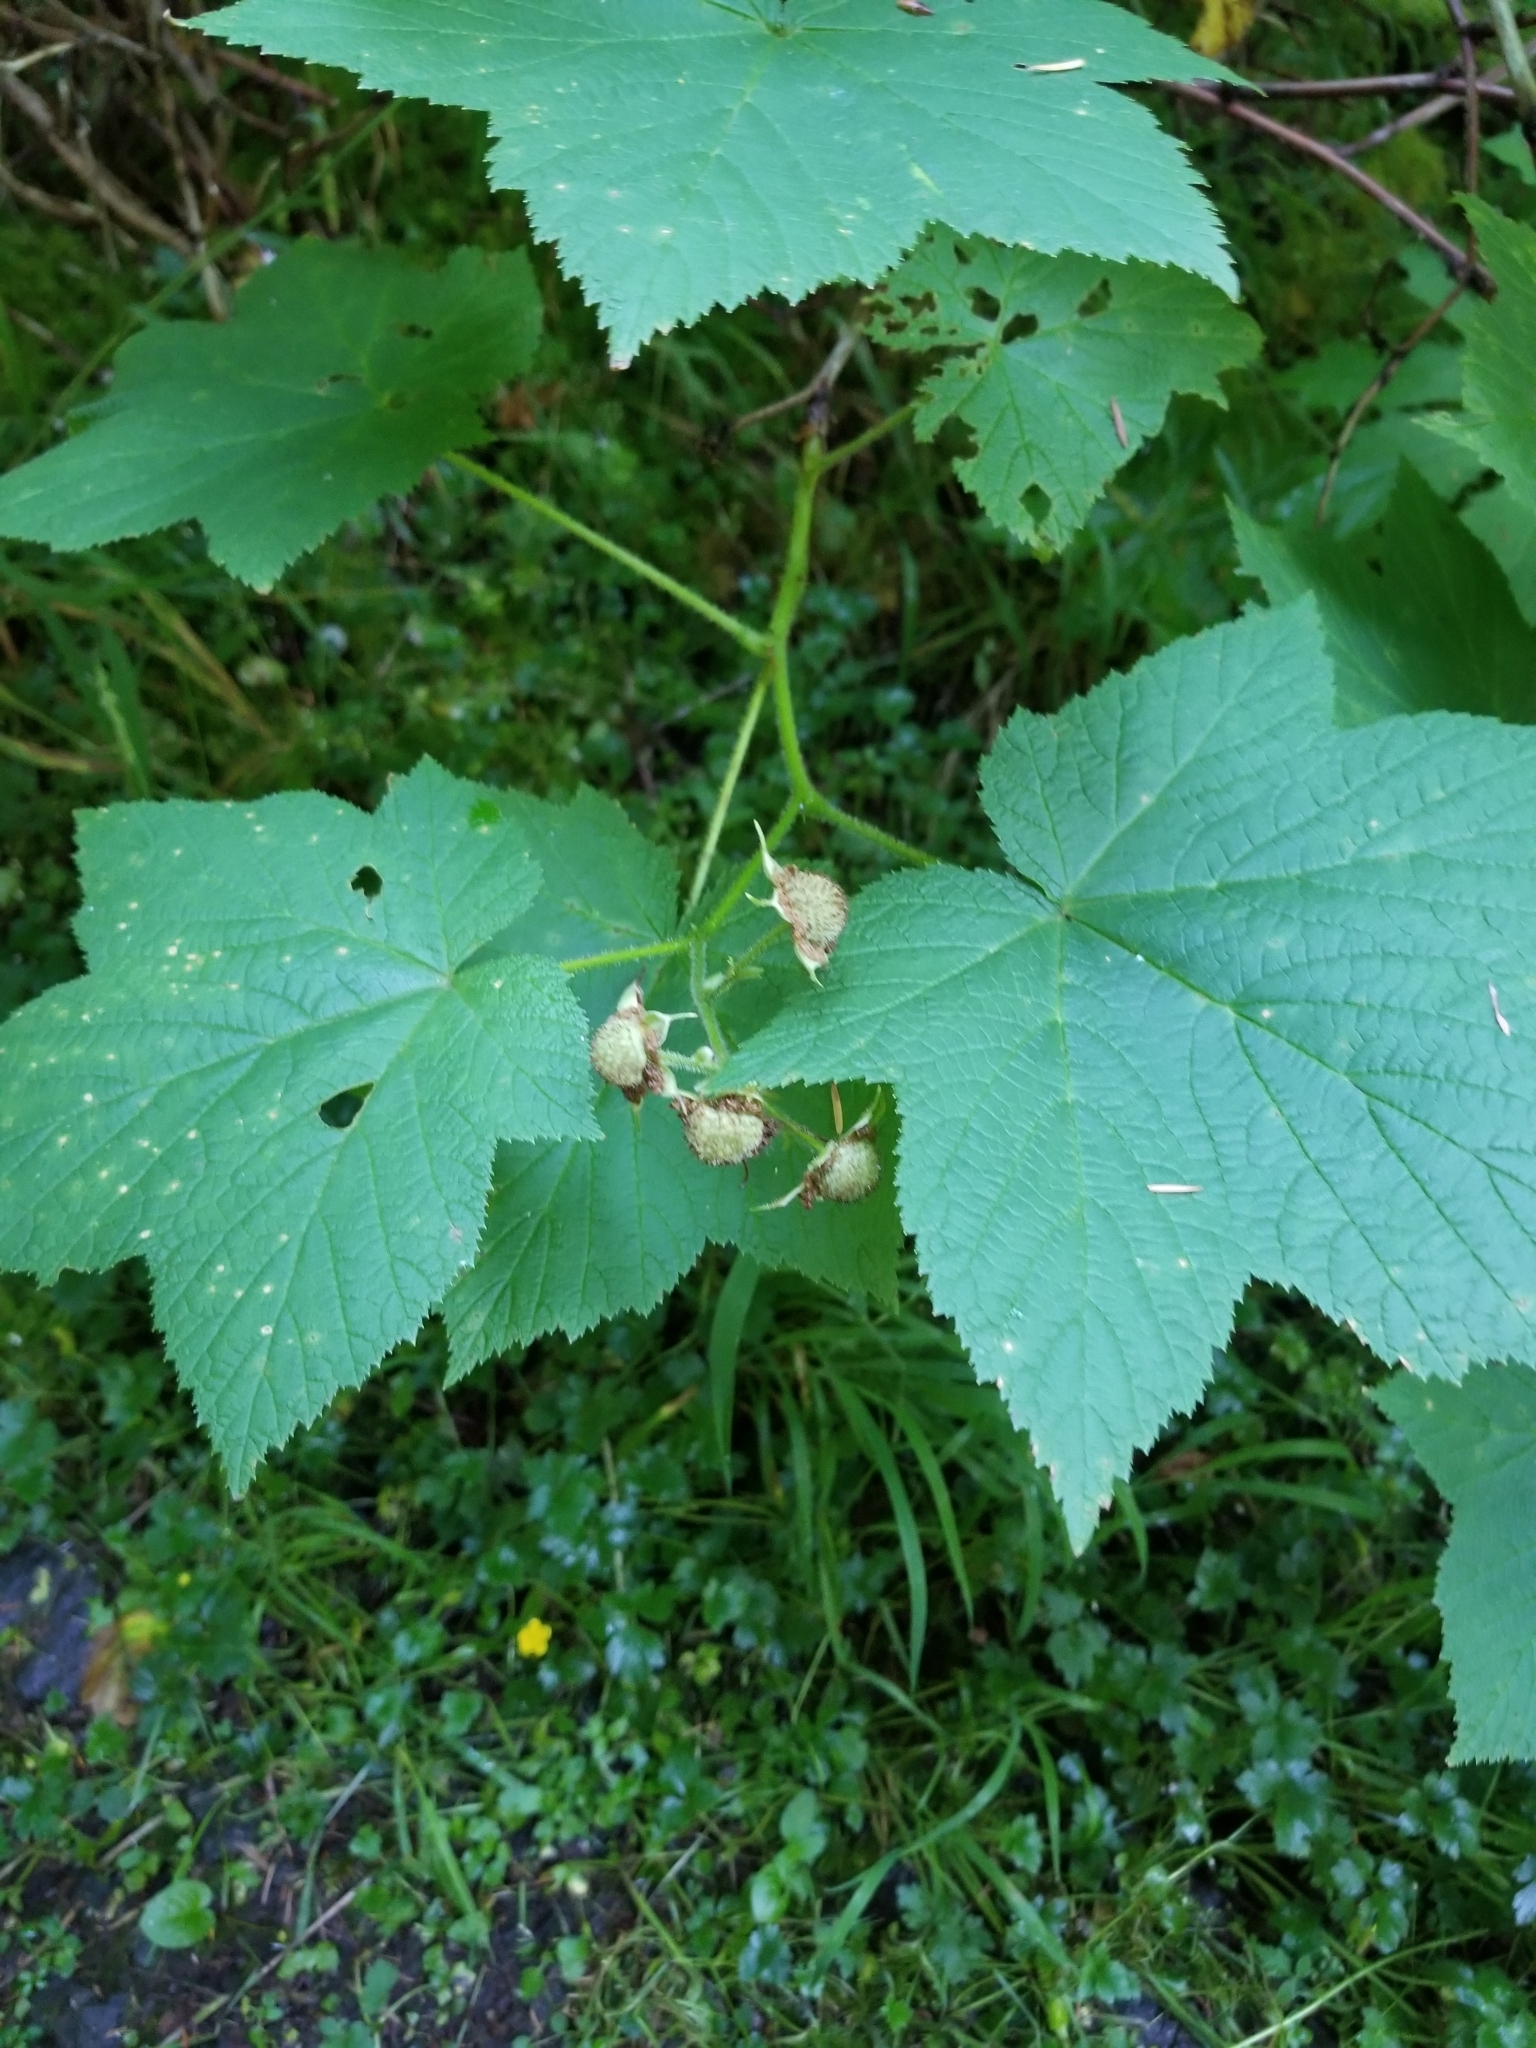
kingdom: Plantae
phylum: Tracheophyta
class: Magnoliopsida
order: Rosales
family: Rosaceae
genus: Rubus
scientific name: Rubus parviflorus
